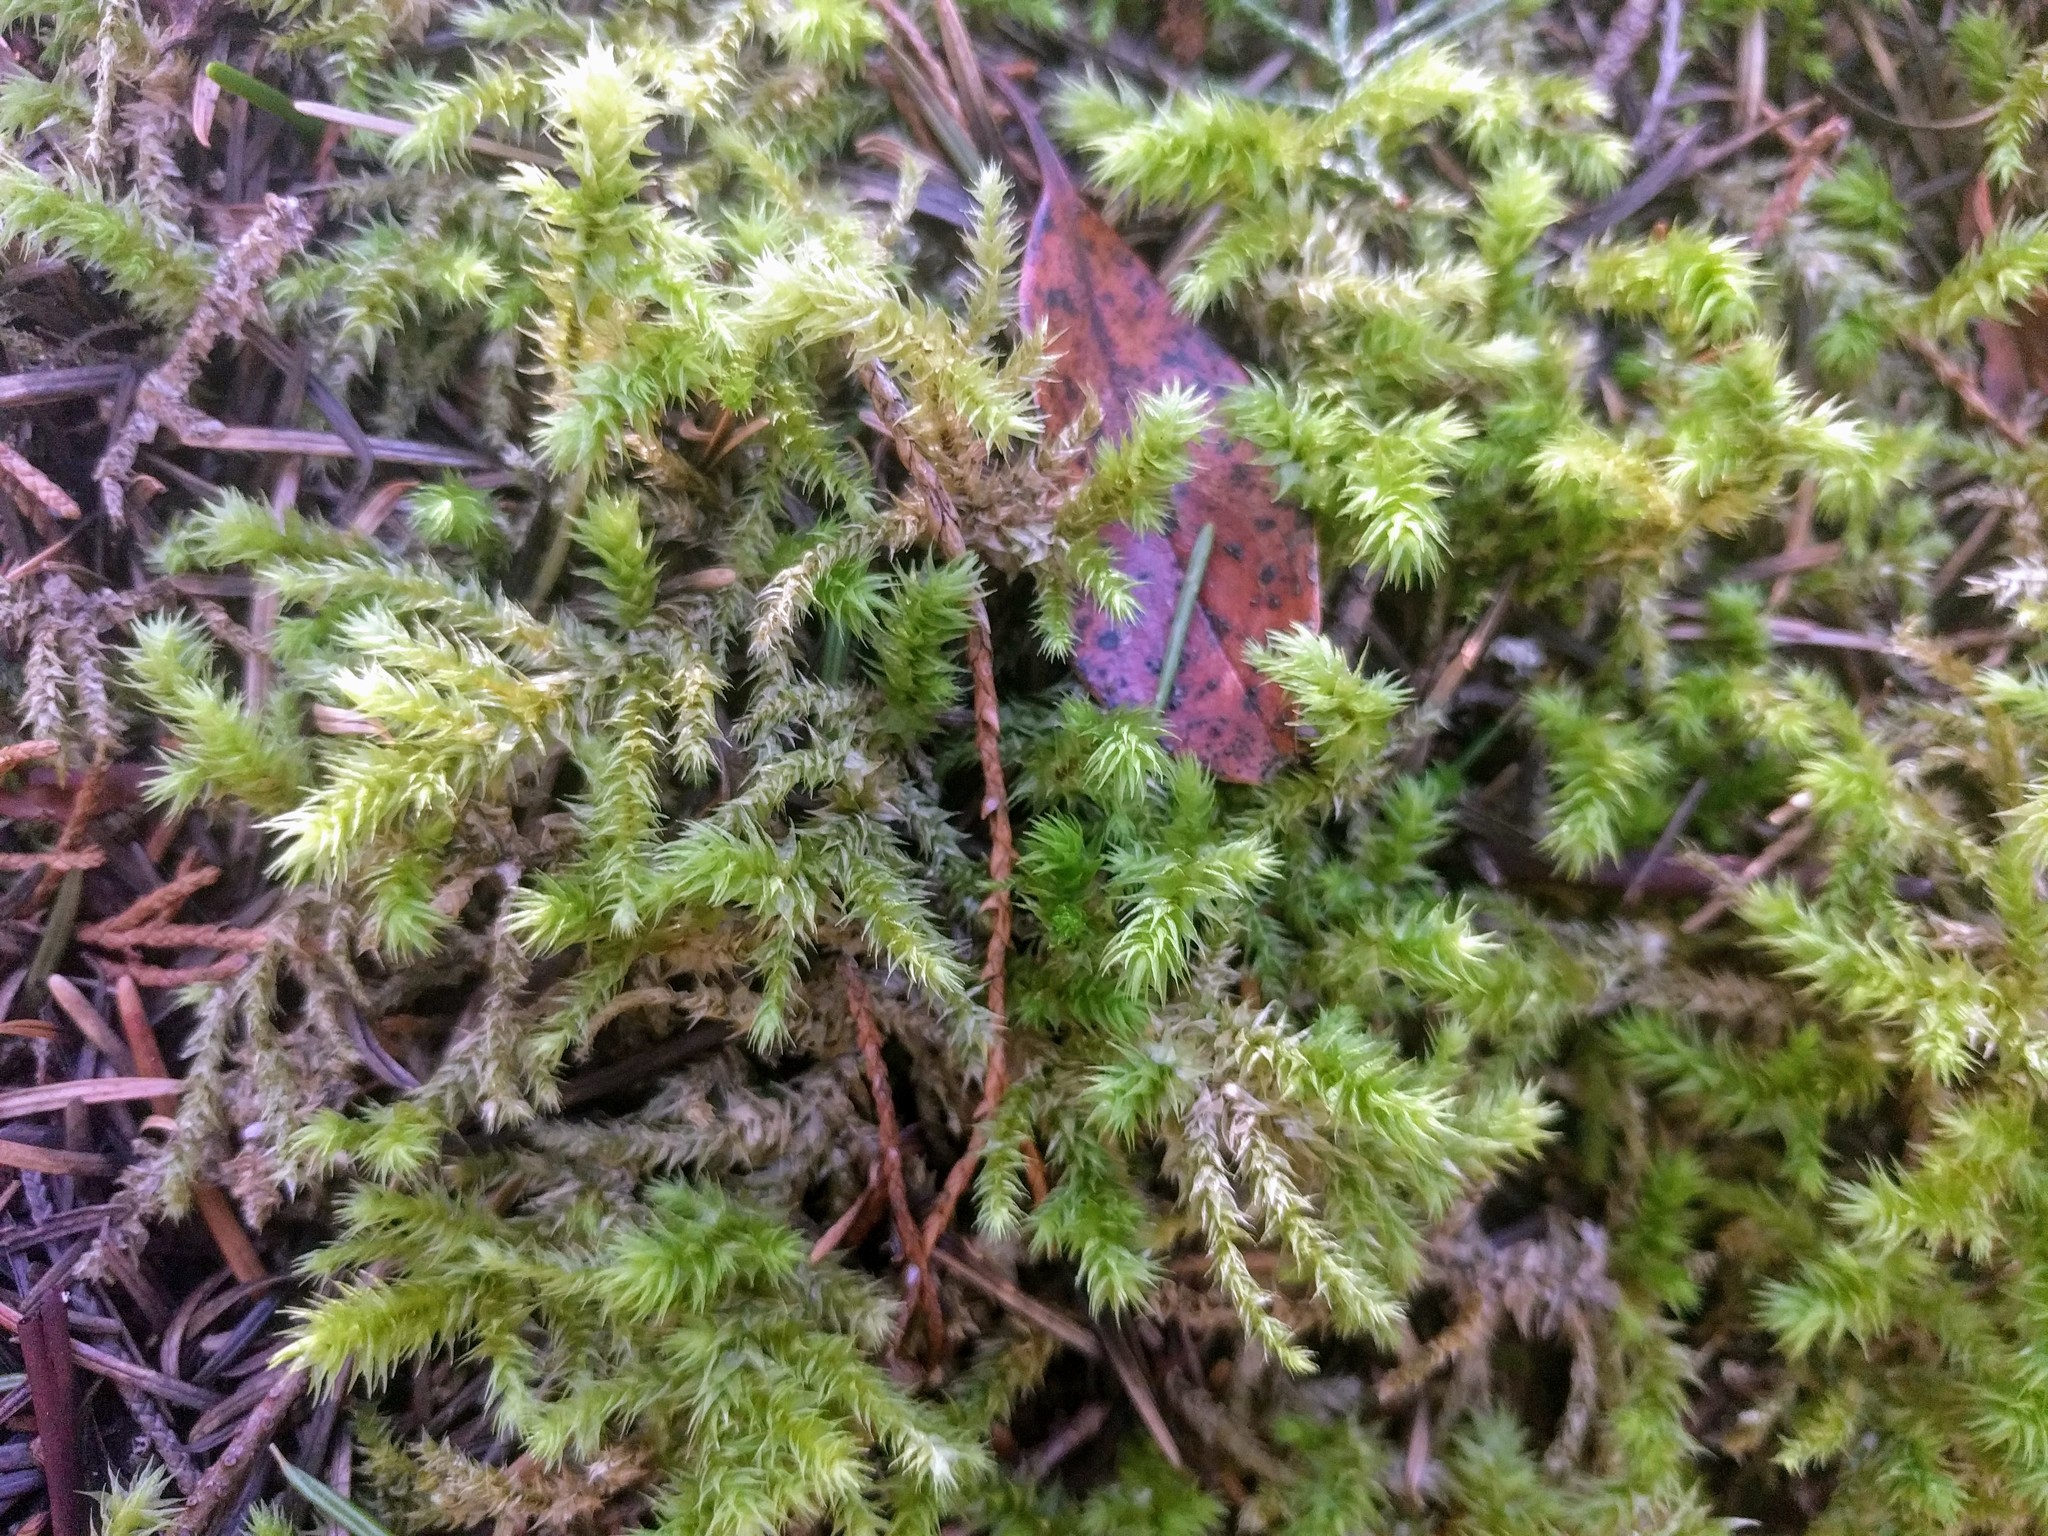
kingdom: Plantae
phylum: Bryophyta
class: Bryopsida
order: Hypnales
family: Hylocomiaceae
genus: Hylocomiadelphus
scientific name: Hylocomiadelphus triquetrus
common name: Rough goose neck moss
